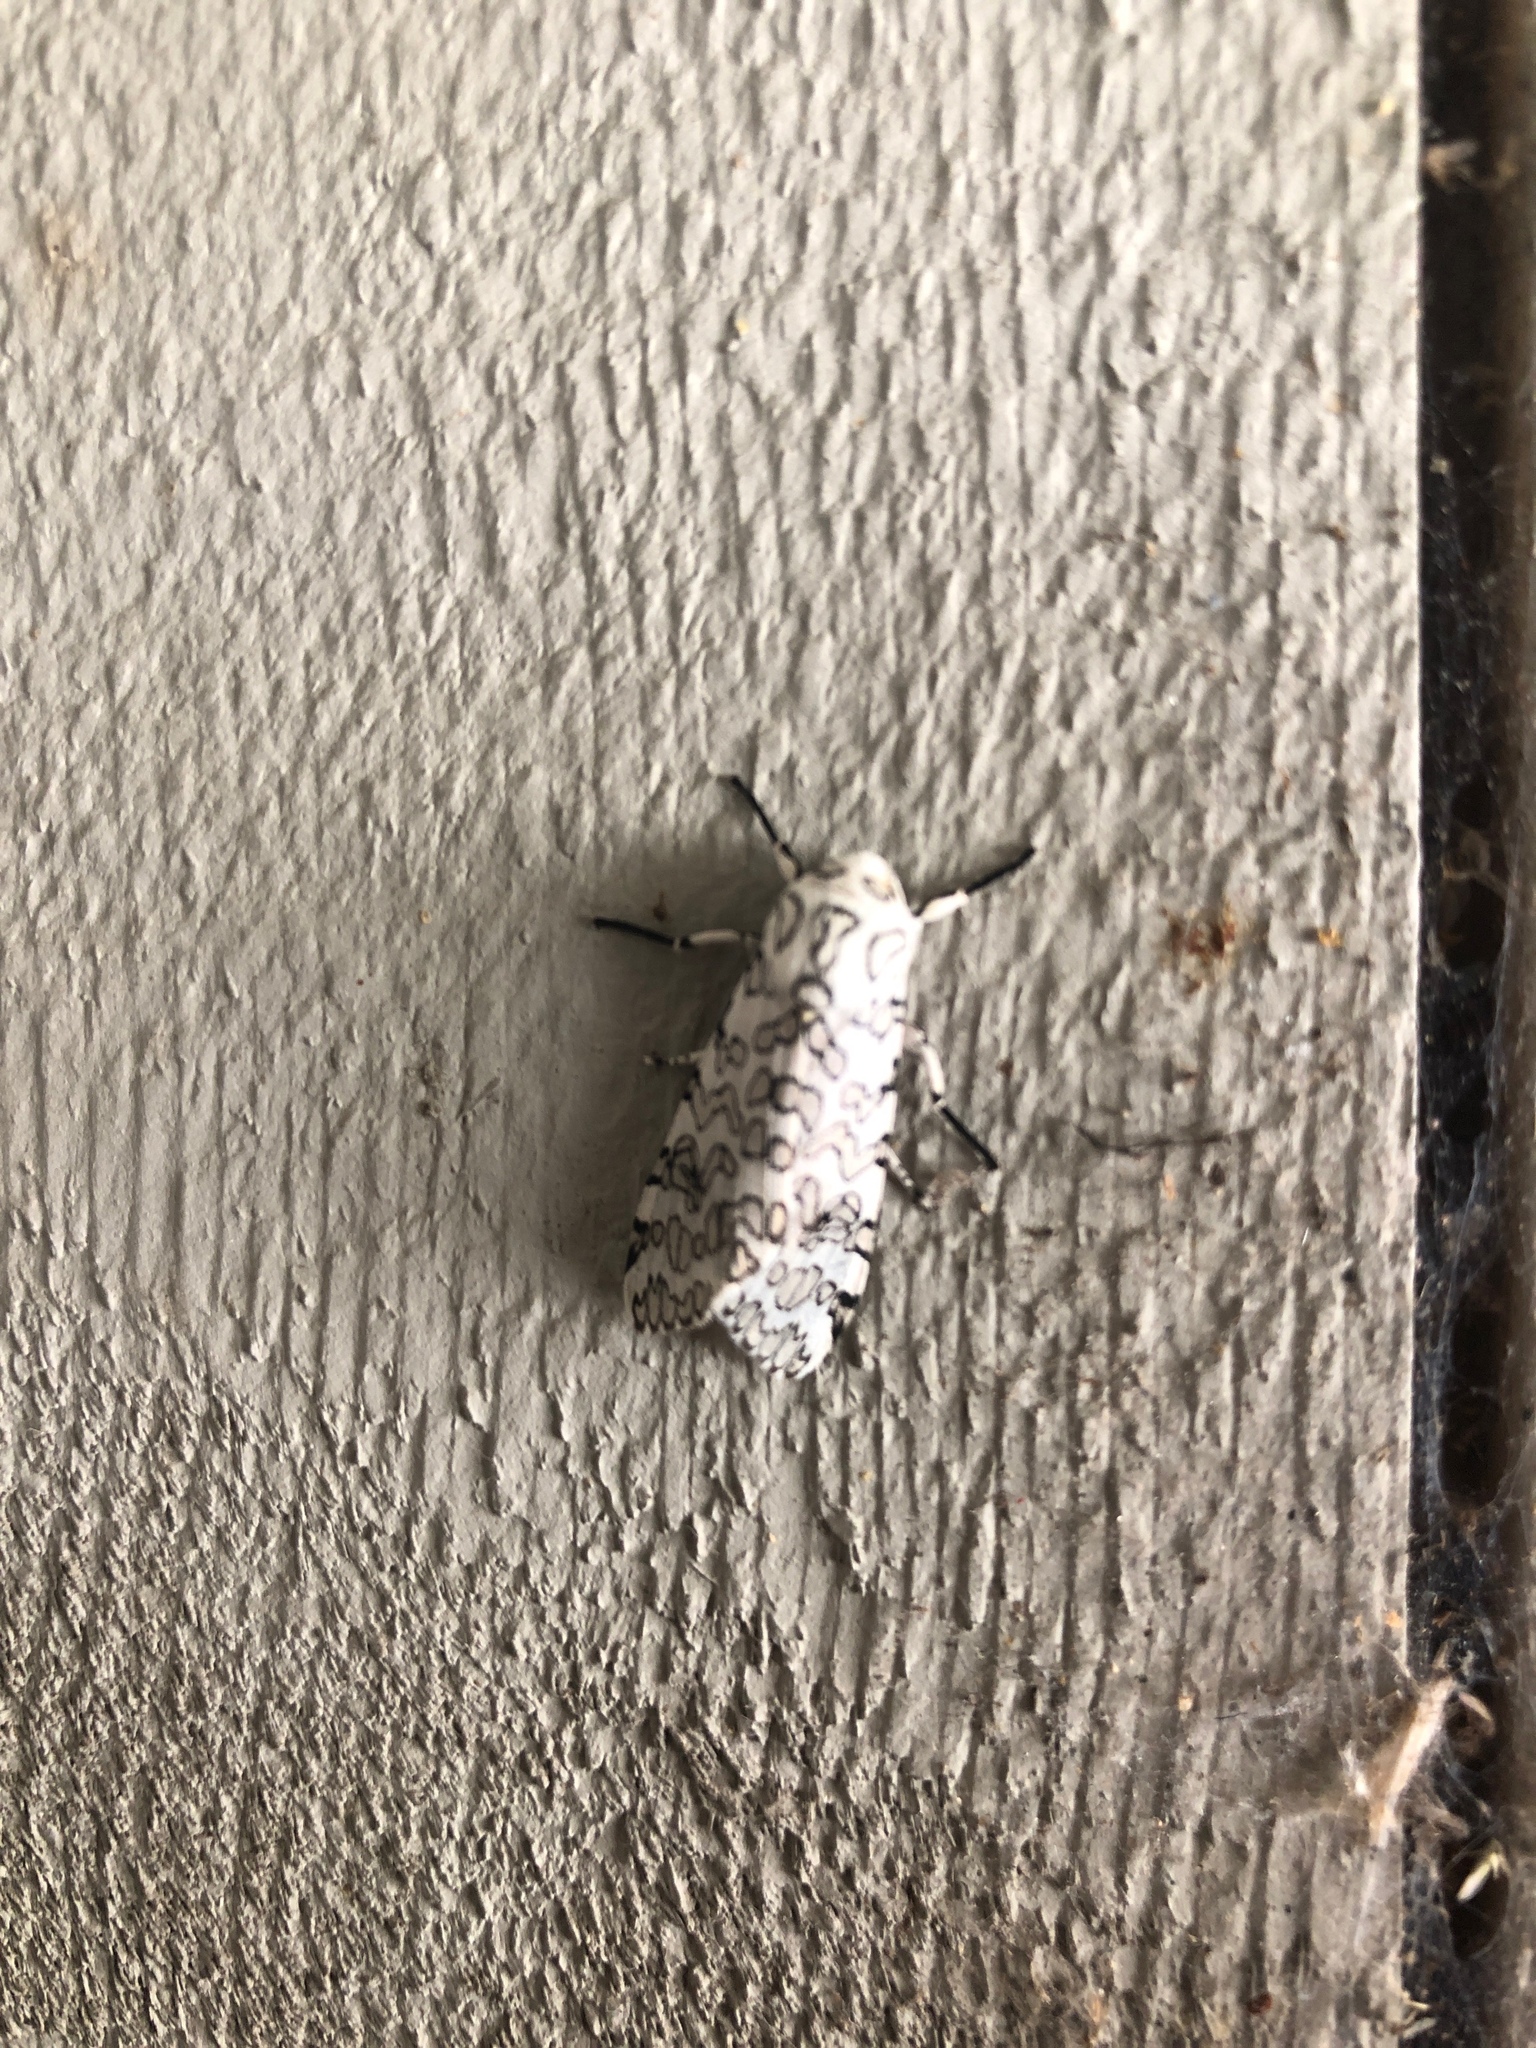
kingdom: Animalia
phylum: Arthropoda
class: Insecta
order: Lepidoptera
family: Erebidae
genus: Hypercompe
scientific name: Hypercompe oslari
